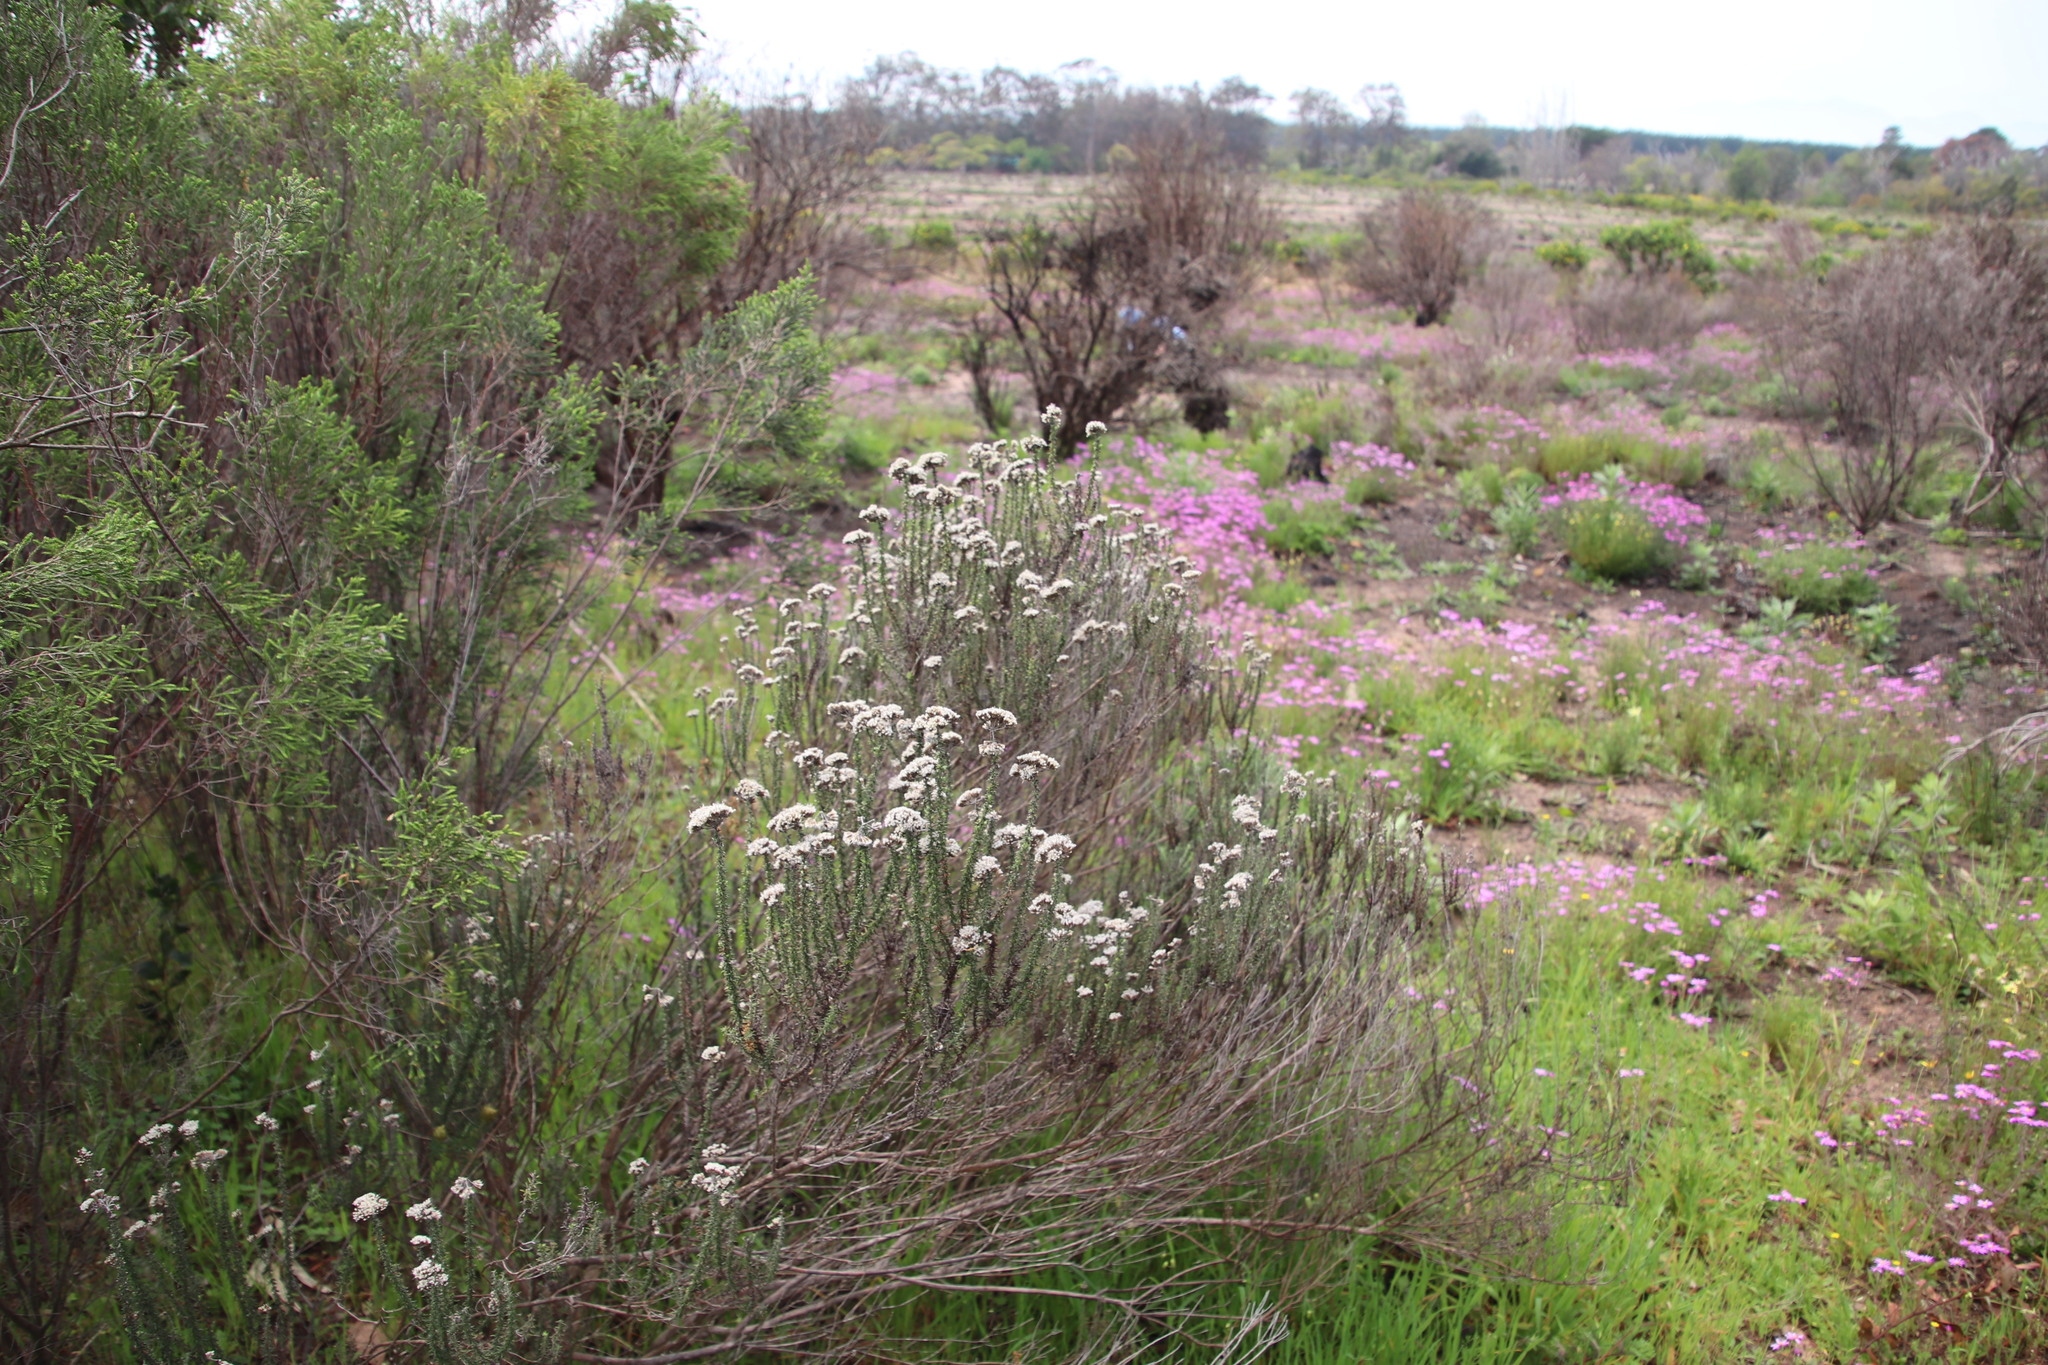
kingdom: Plantae
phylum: Tracheophyta
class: Magnoliopsida
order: Asterales
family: Asteraceae
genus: Metalasia
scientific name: Metalasia densa
